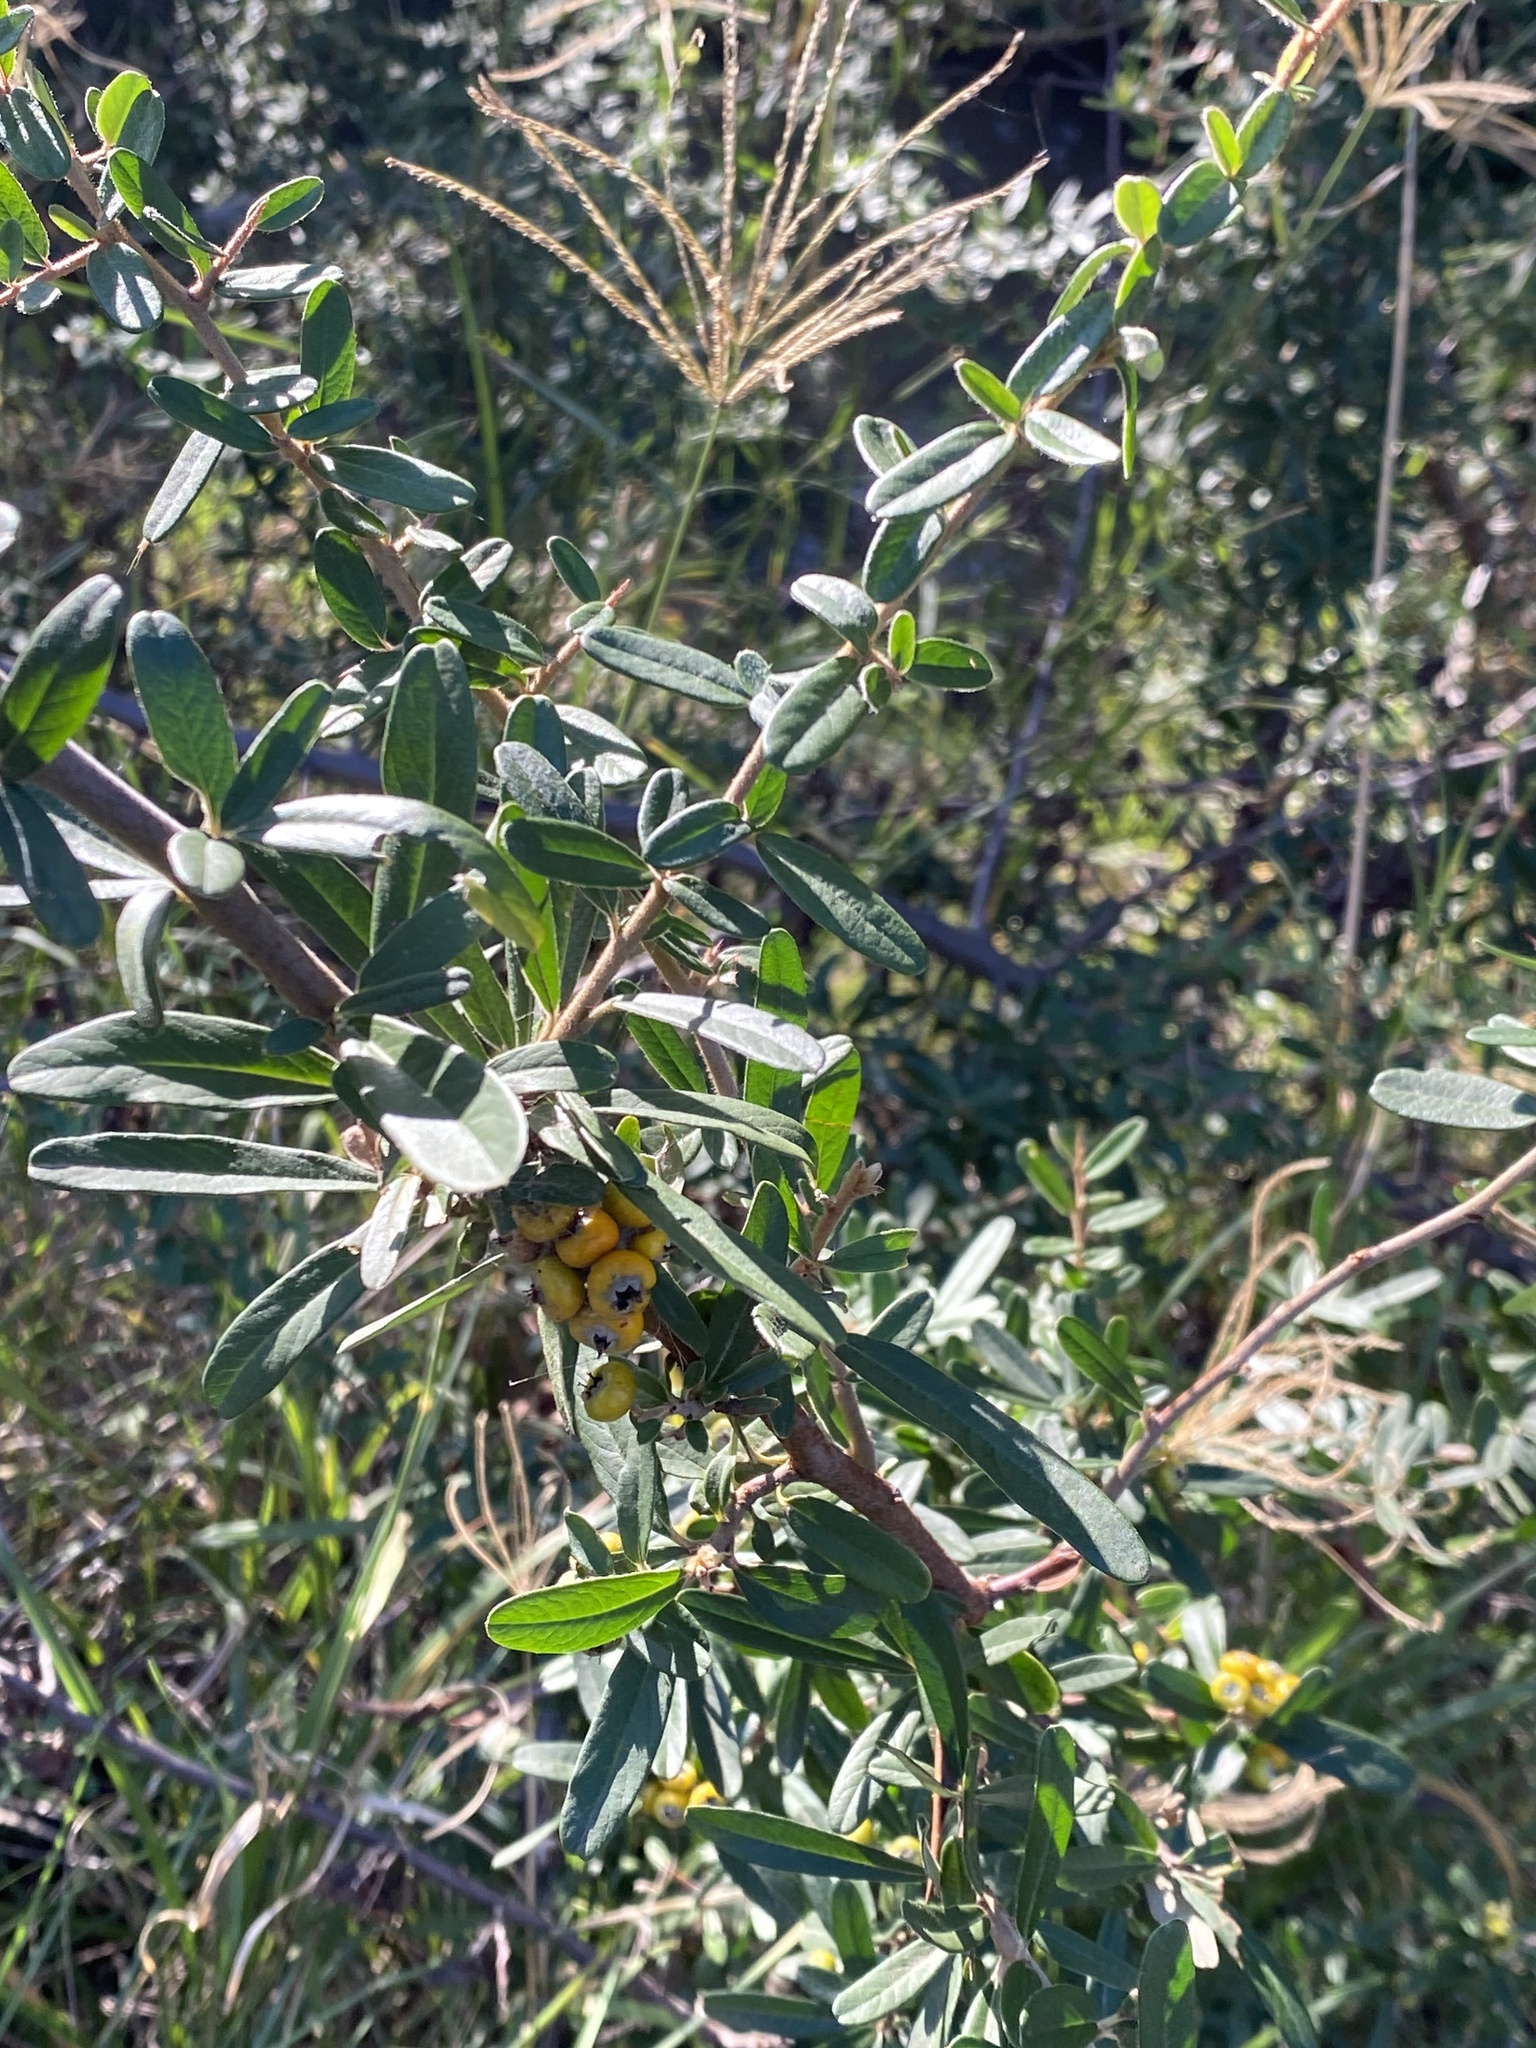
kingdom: Plantae
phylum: Tracheophyta
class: Magnoliopsida
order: Rosales
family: Rosaceae
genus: Pyracantha
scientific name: Pyracantha angustifolia
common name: Narrowleaf firethorn
